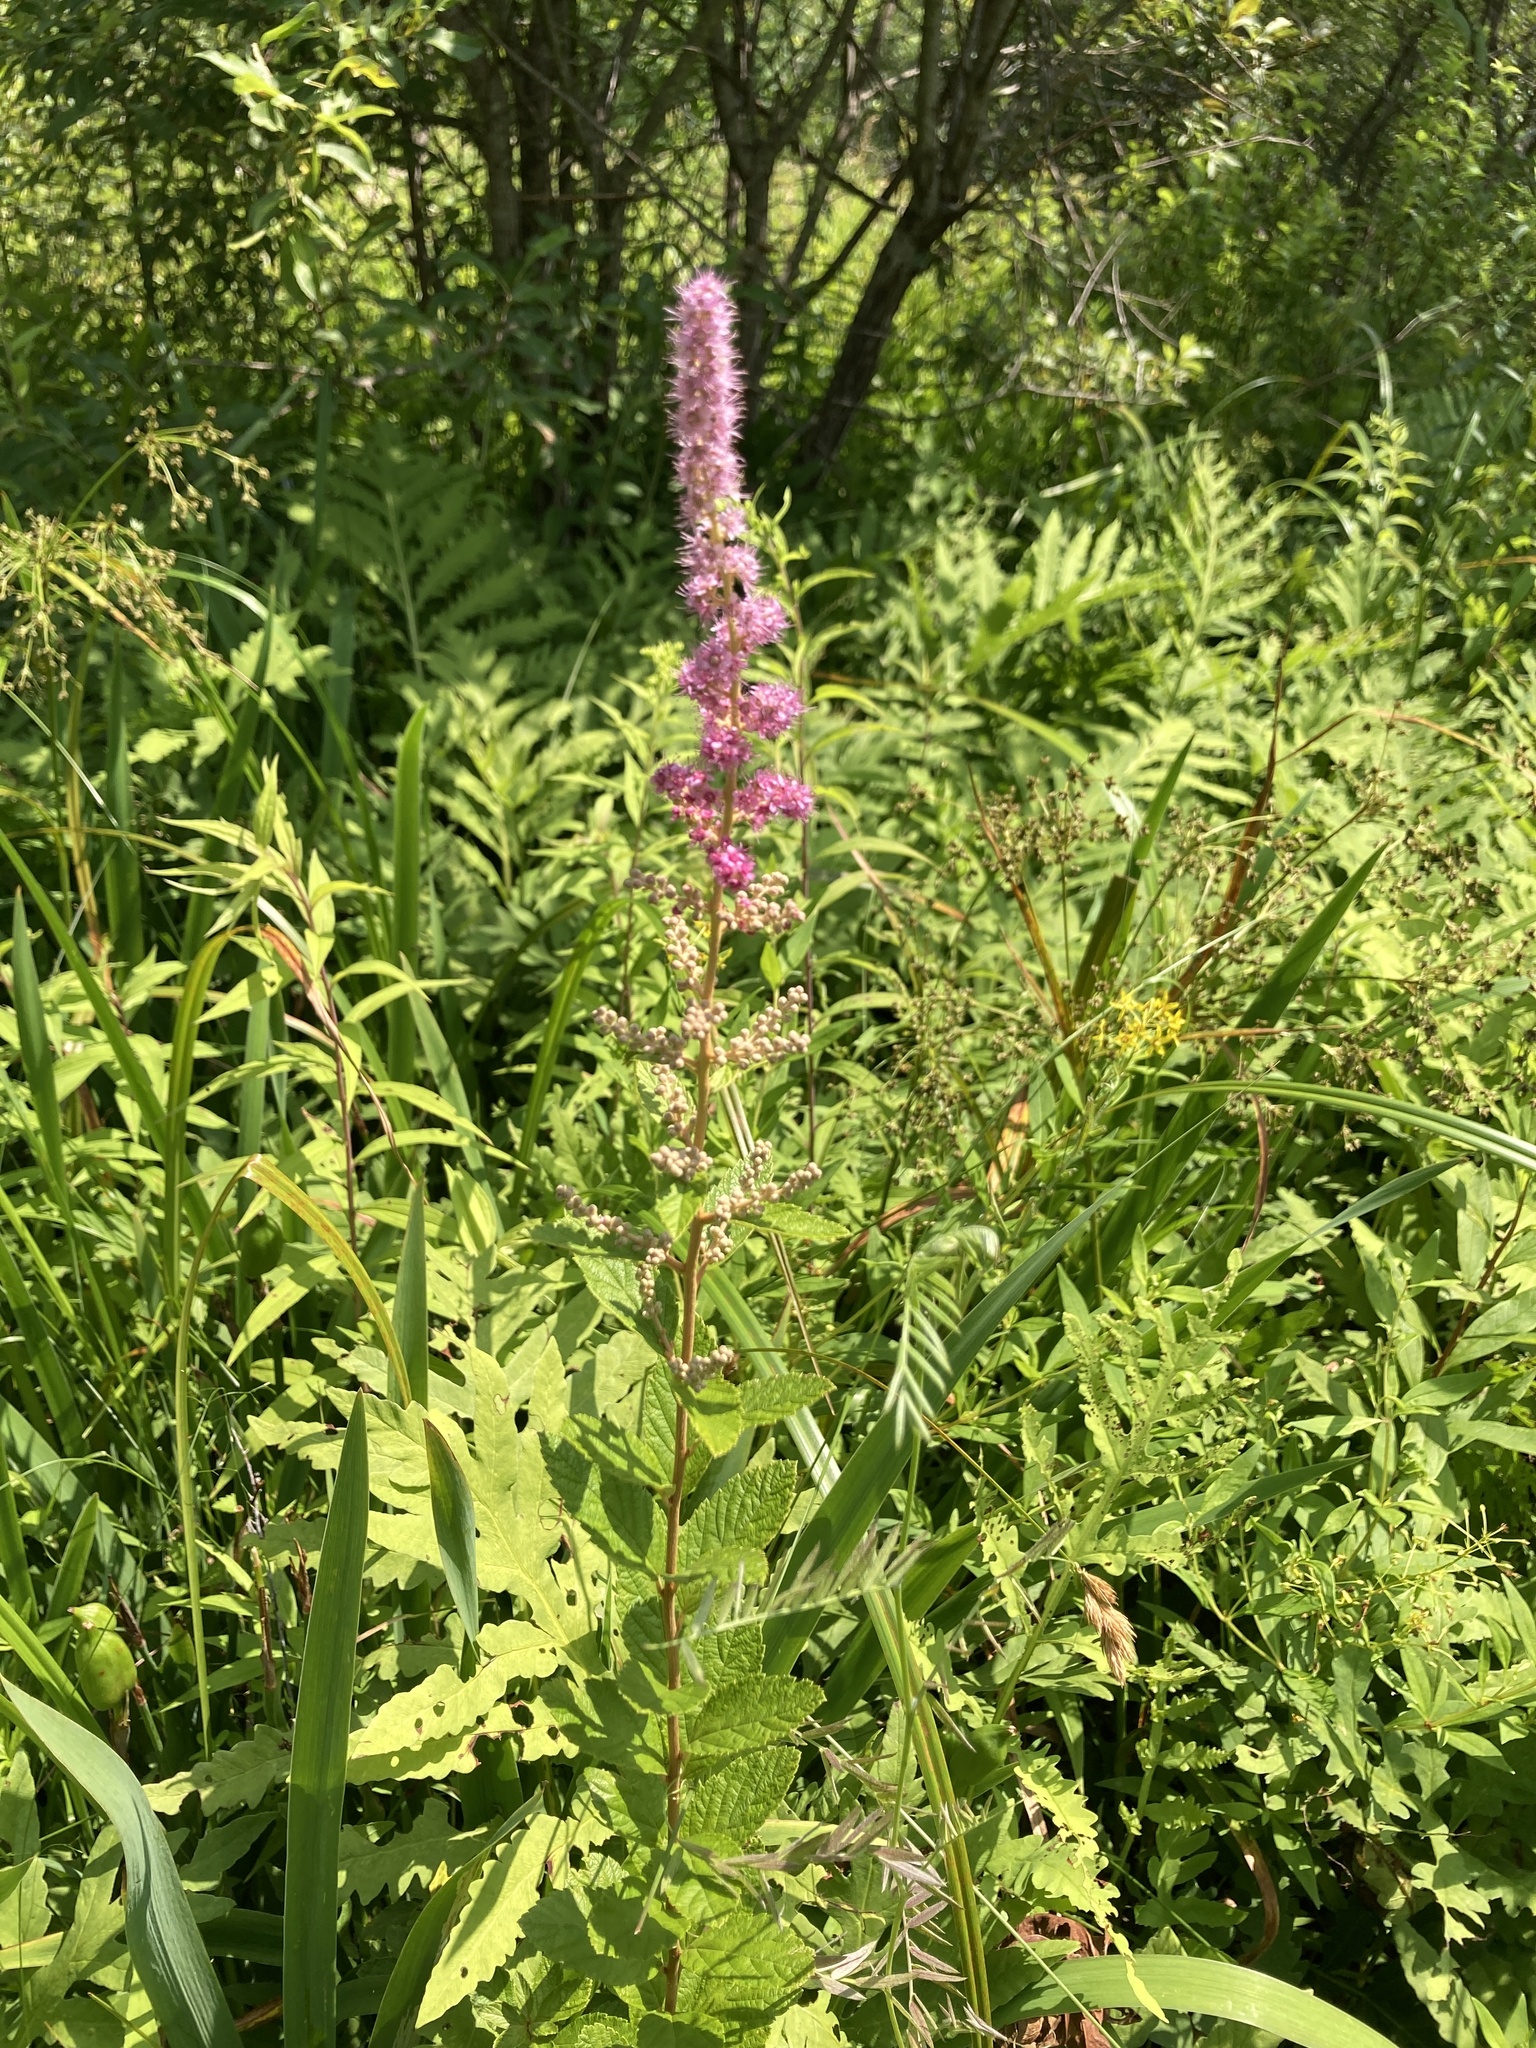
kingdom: Plantae
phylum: Tracheophyta
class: Magnoliopsida
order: Rosales
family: Rosaceae
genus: Spiraea
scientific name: Spiraea tomentosa
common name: Hardhack
